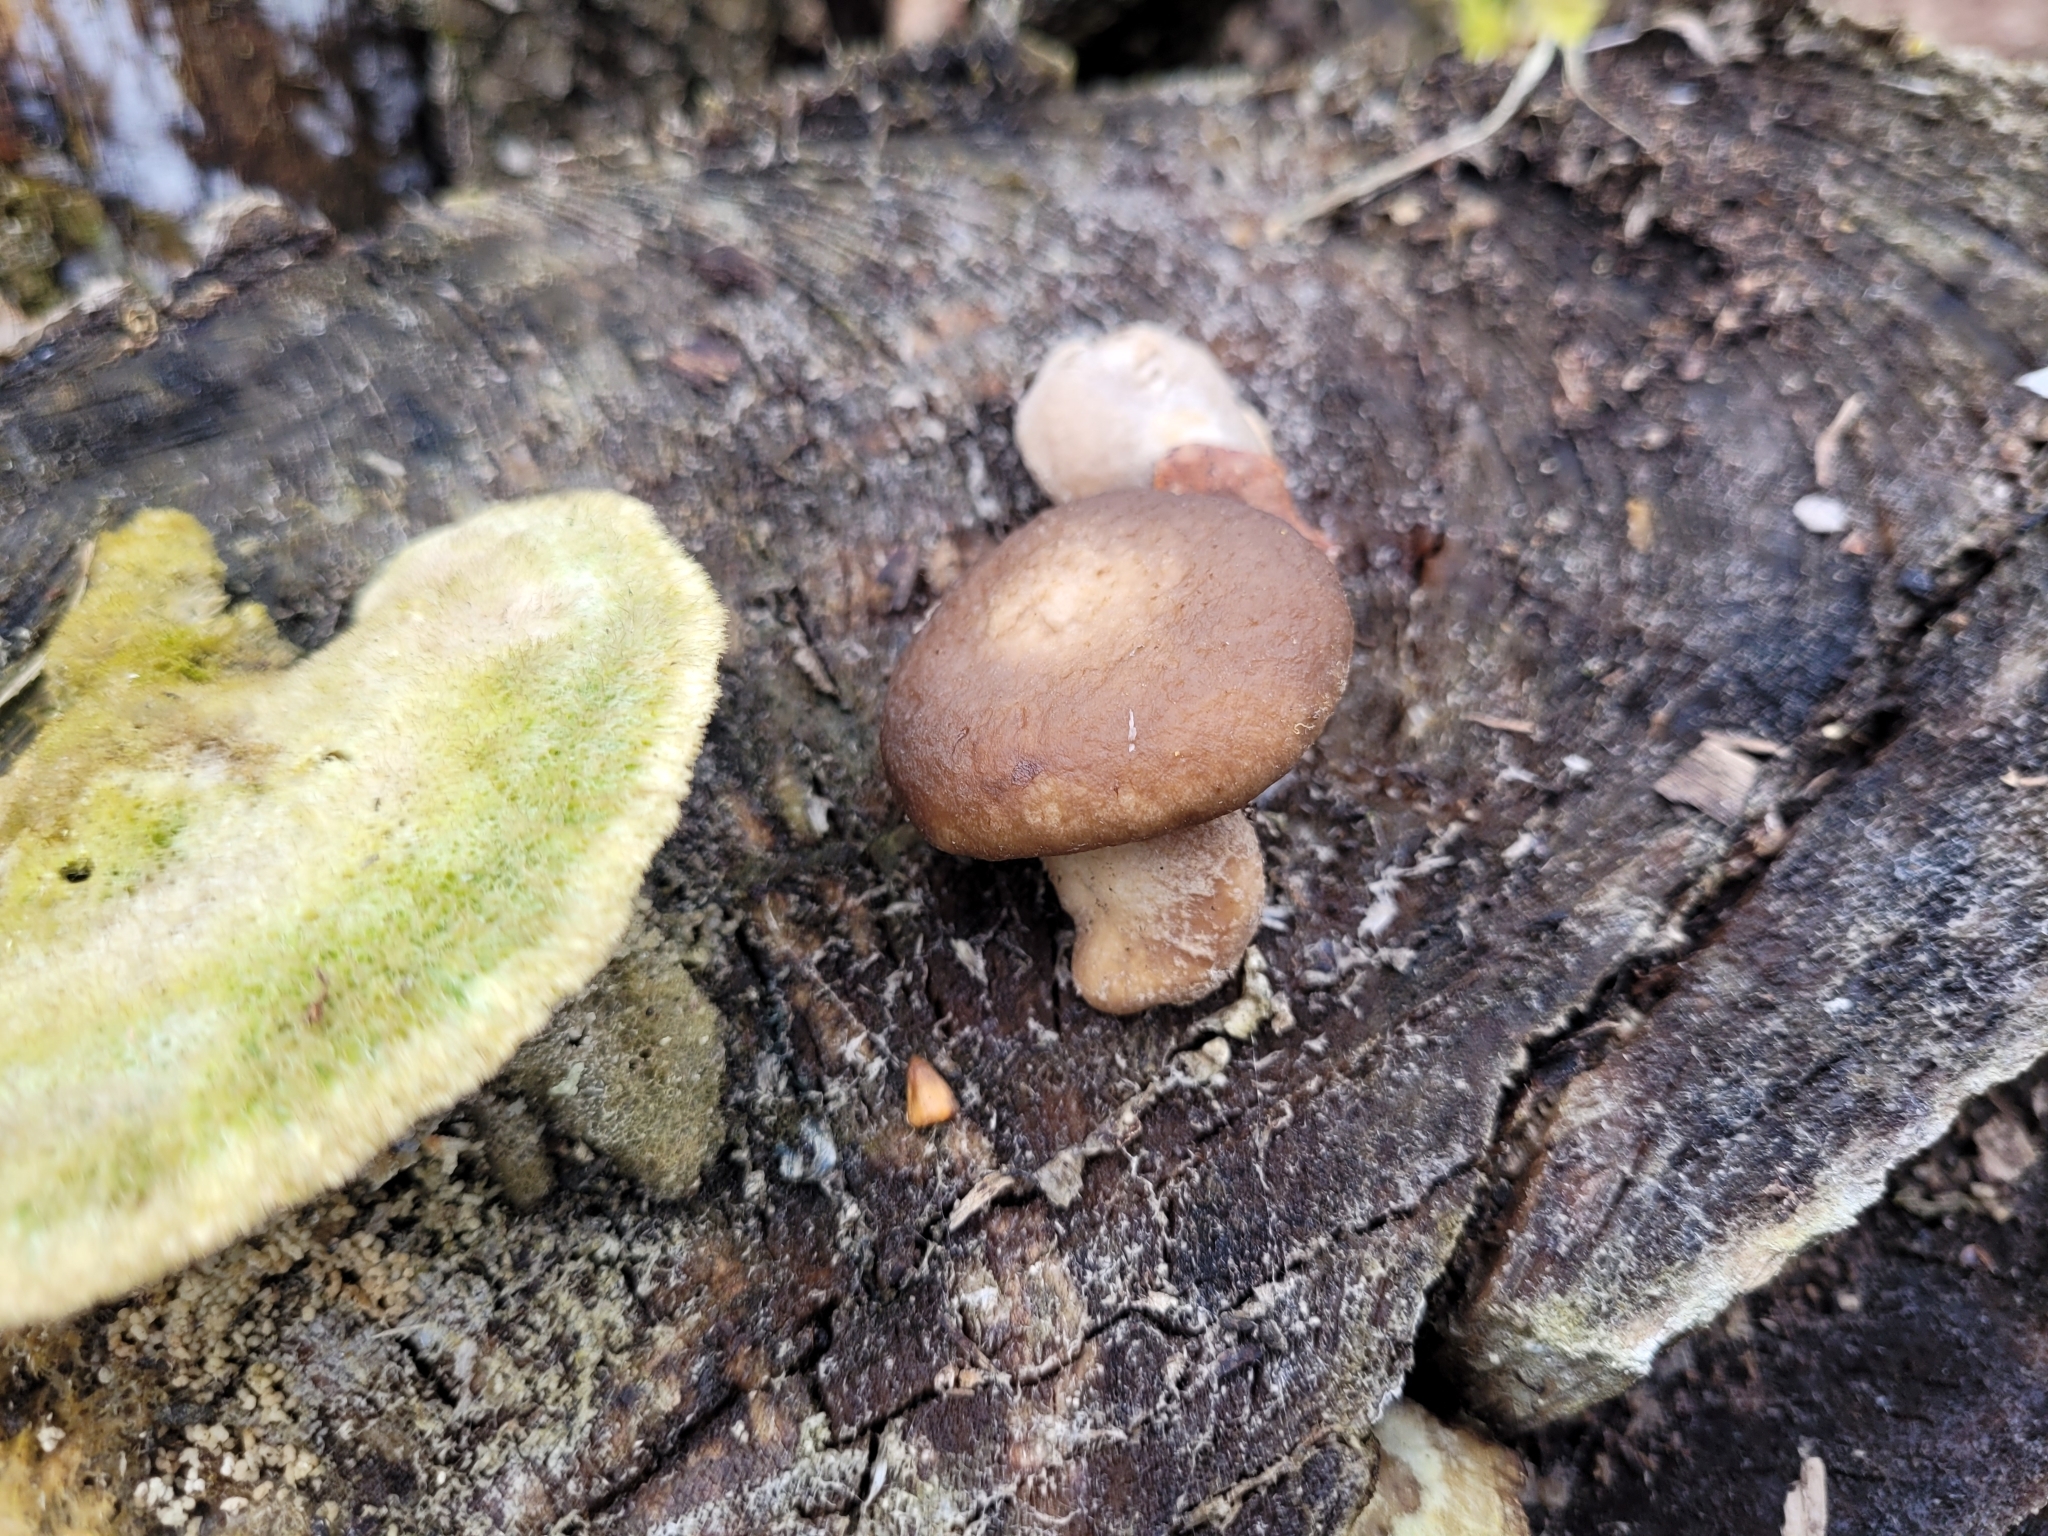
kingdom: Fungi
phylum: Basidiomycota
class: Agaricomycetes
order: Agaricales
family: Pleurotaceae
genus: Pleurotus
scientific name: Pleurotus ostreatus
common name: Oyster mushroom
